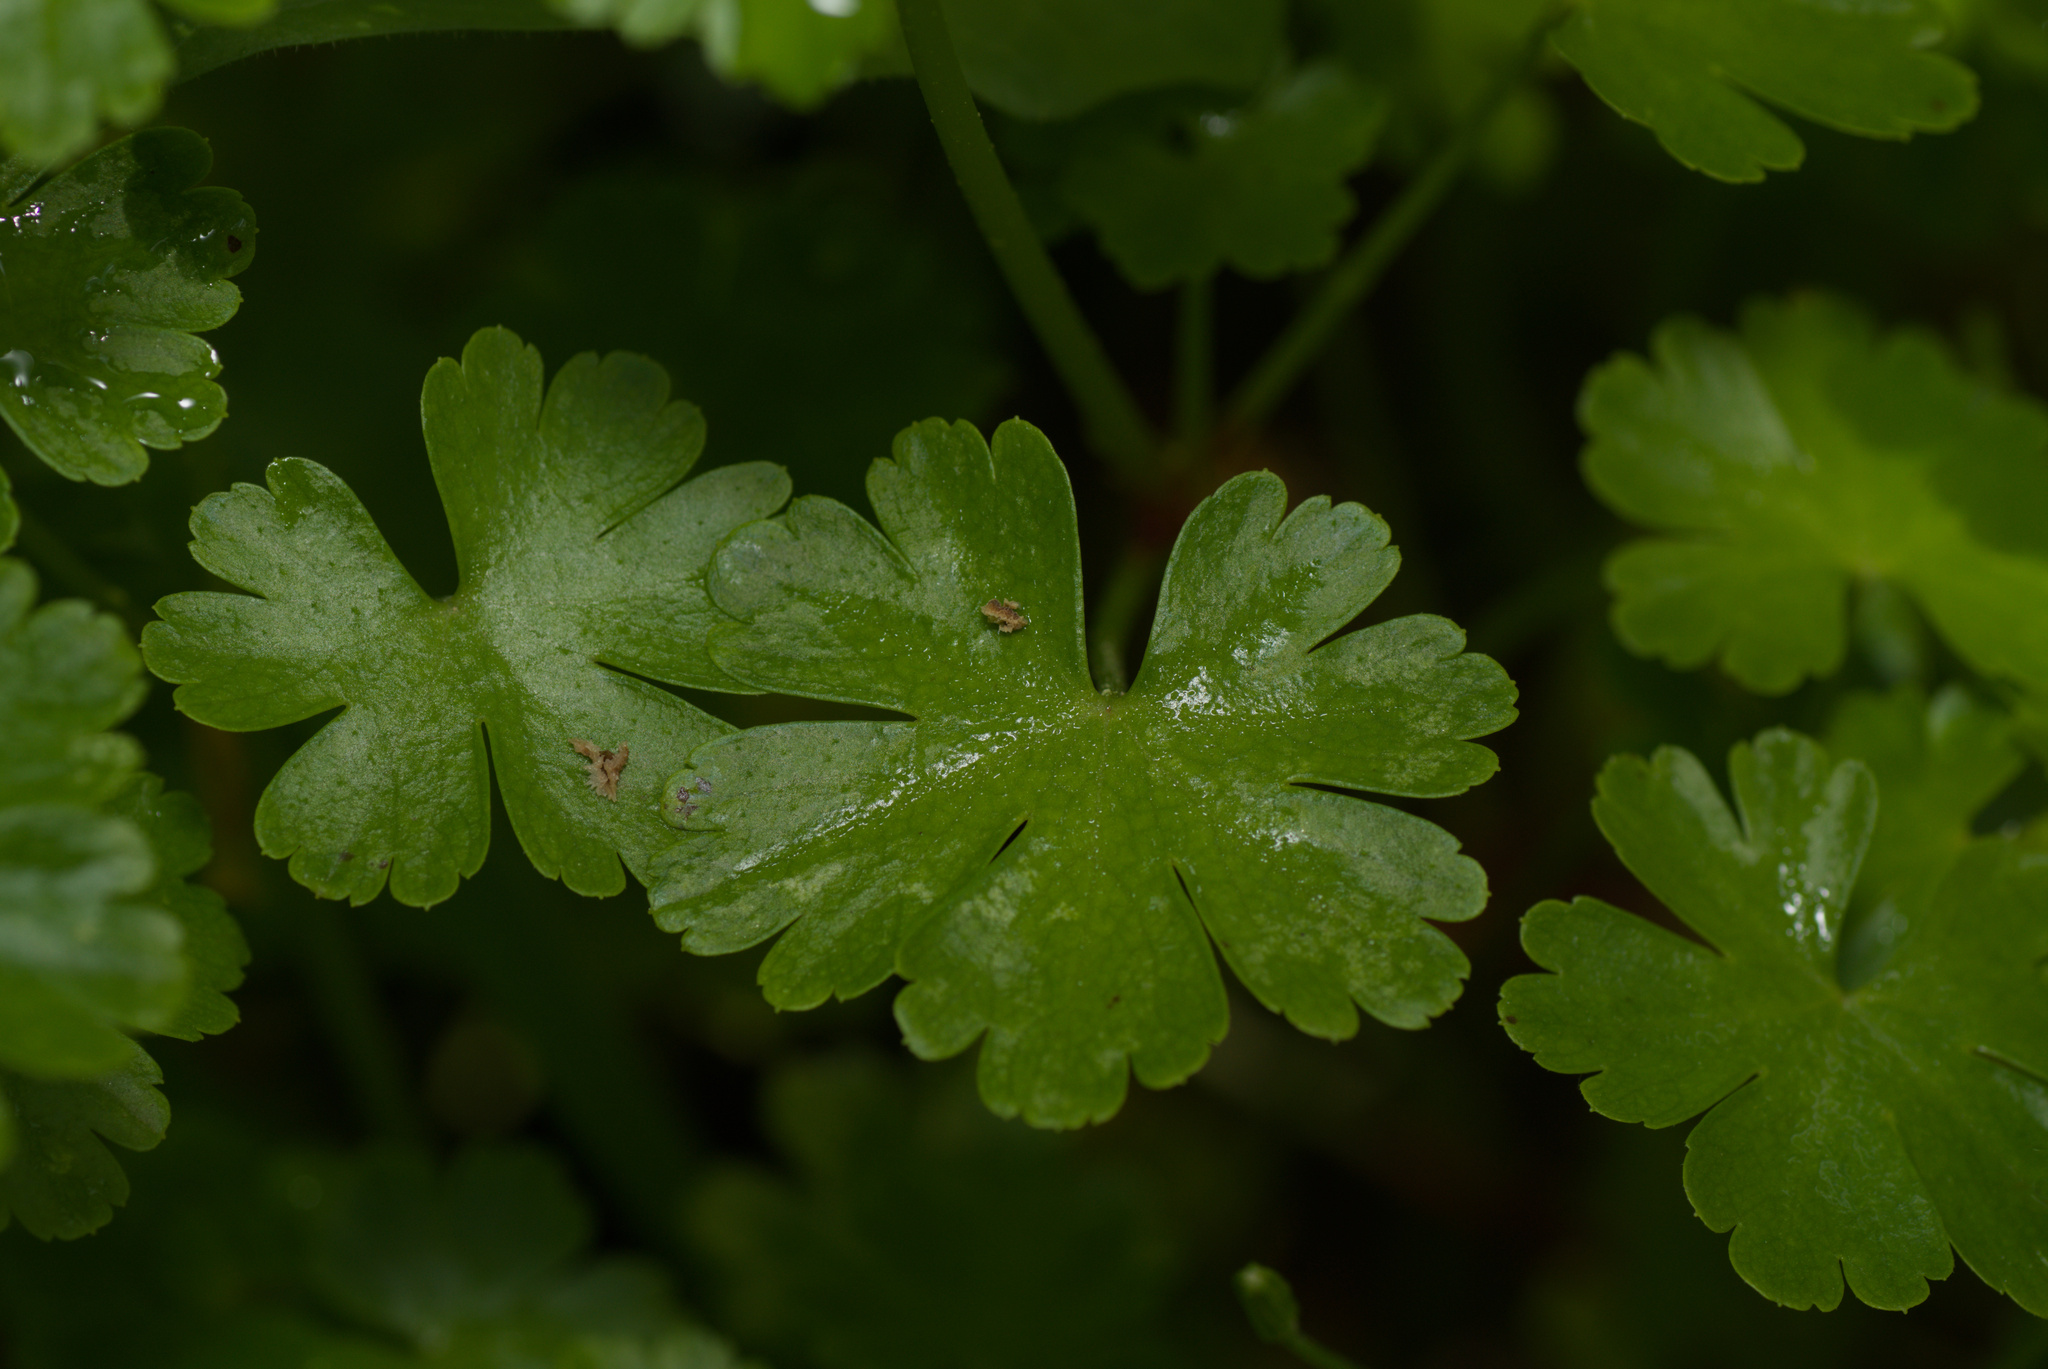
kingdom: Plantae
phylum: Tracheophyta
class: Magnoliopsida
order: Geraniales
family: Geraniaceae
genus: Geranium
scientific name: Geranium lucidum
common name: Shining crane's-bill
